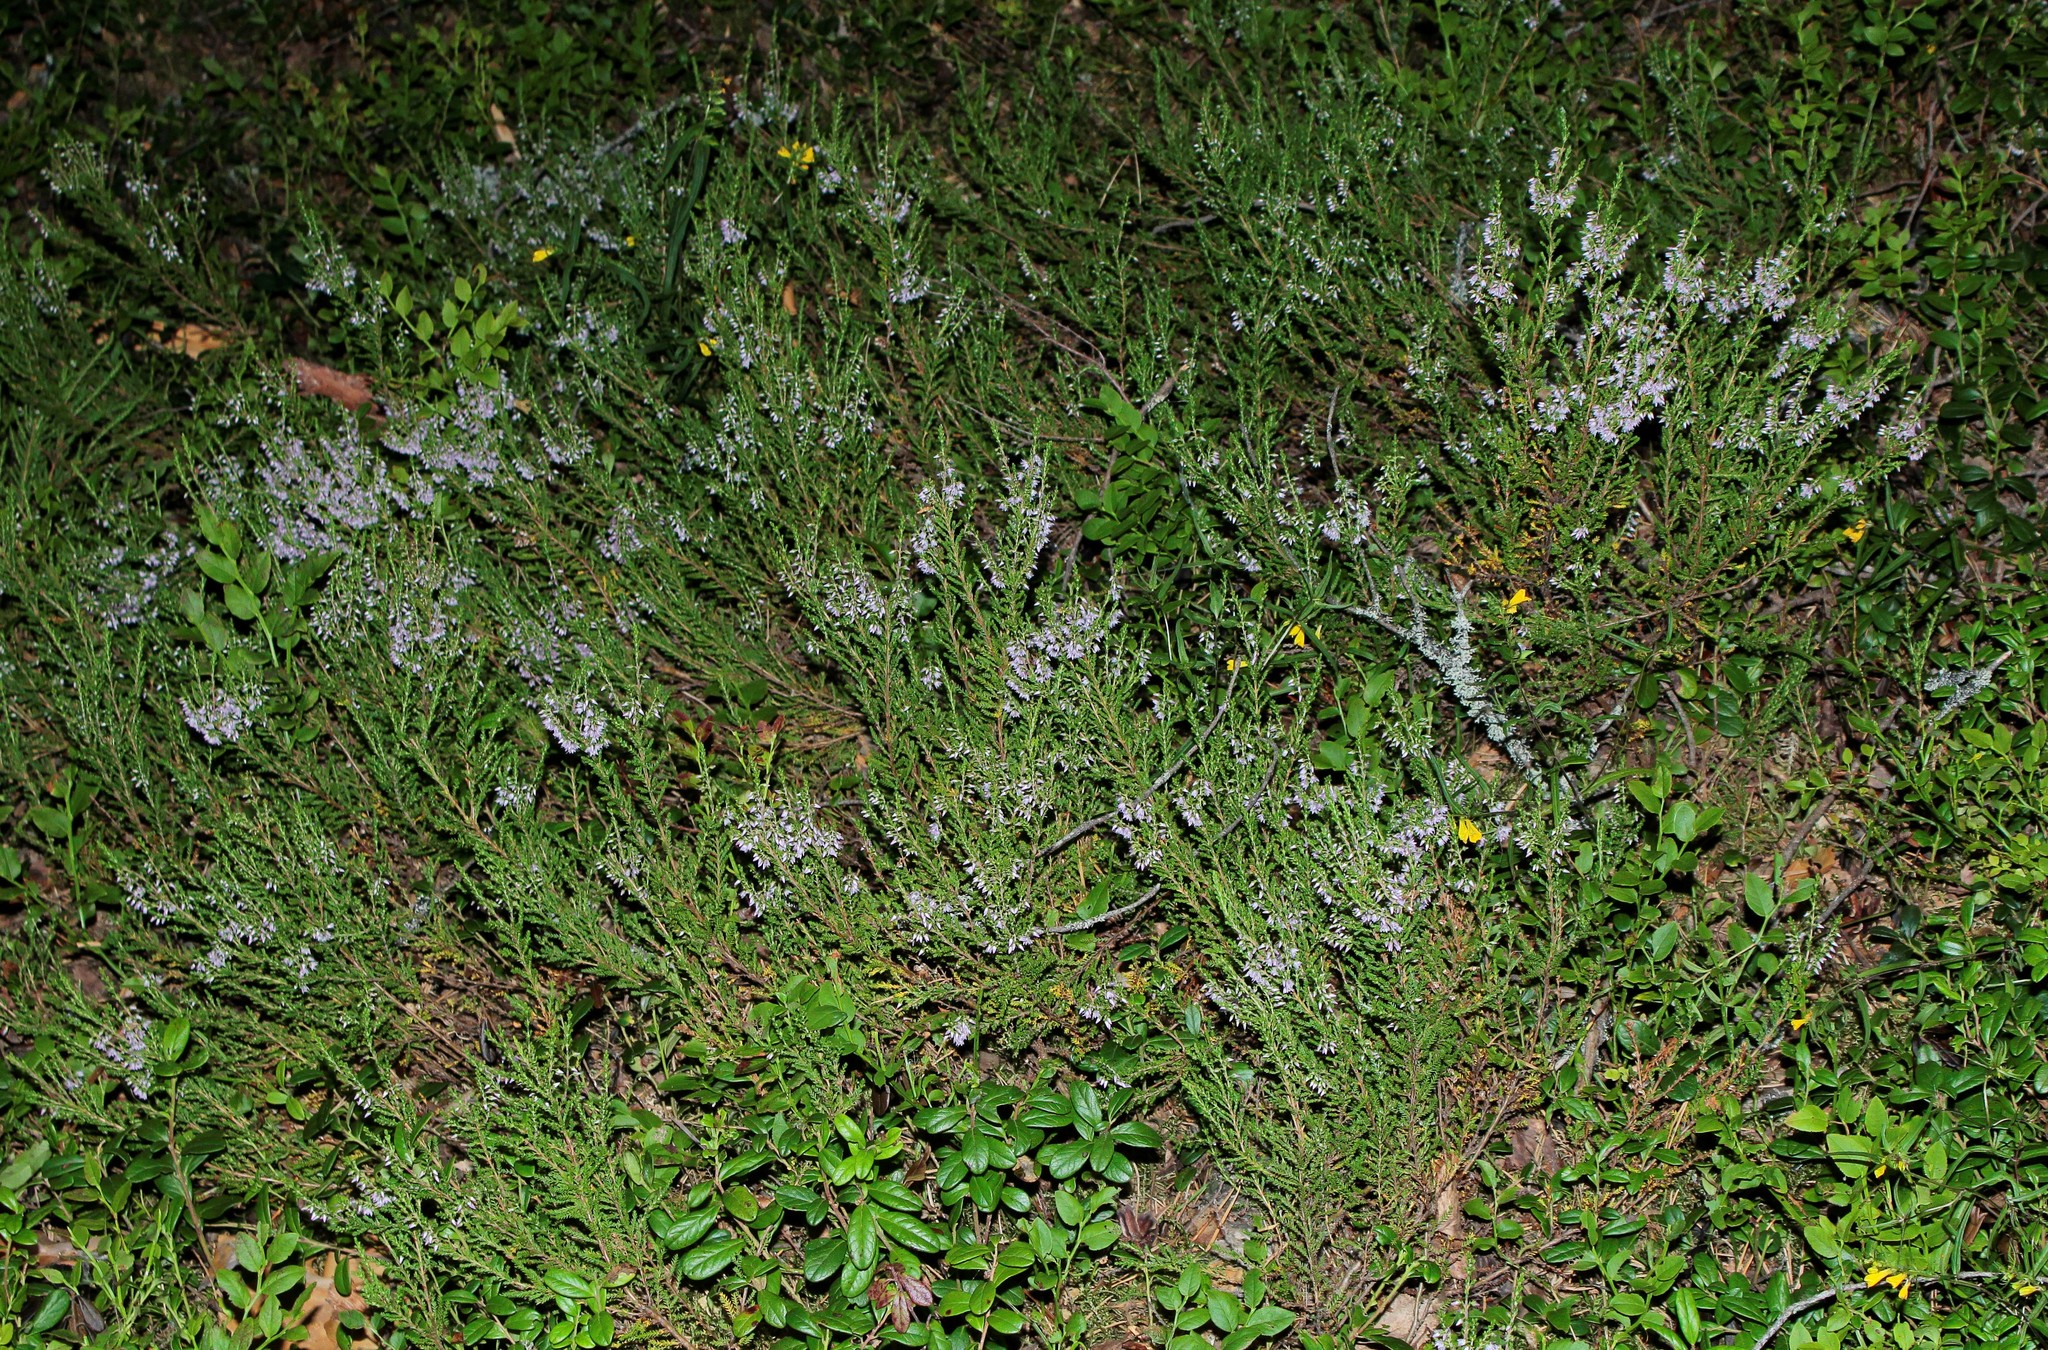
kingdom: Plantae
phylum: Tracheophyta
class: Magnoliopsida
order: Ericales
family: Ericaceae
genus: Calluna
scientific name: Calluna vulgaris
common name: Heather
